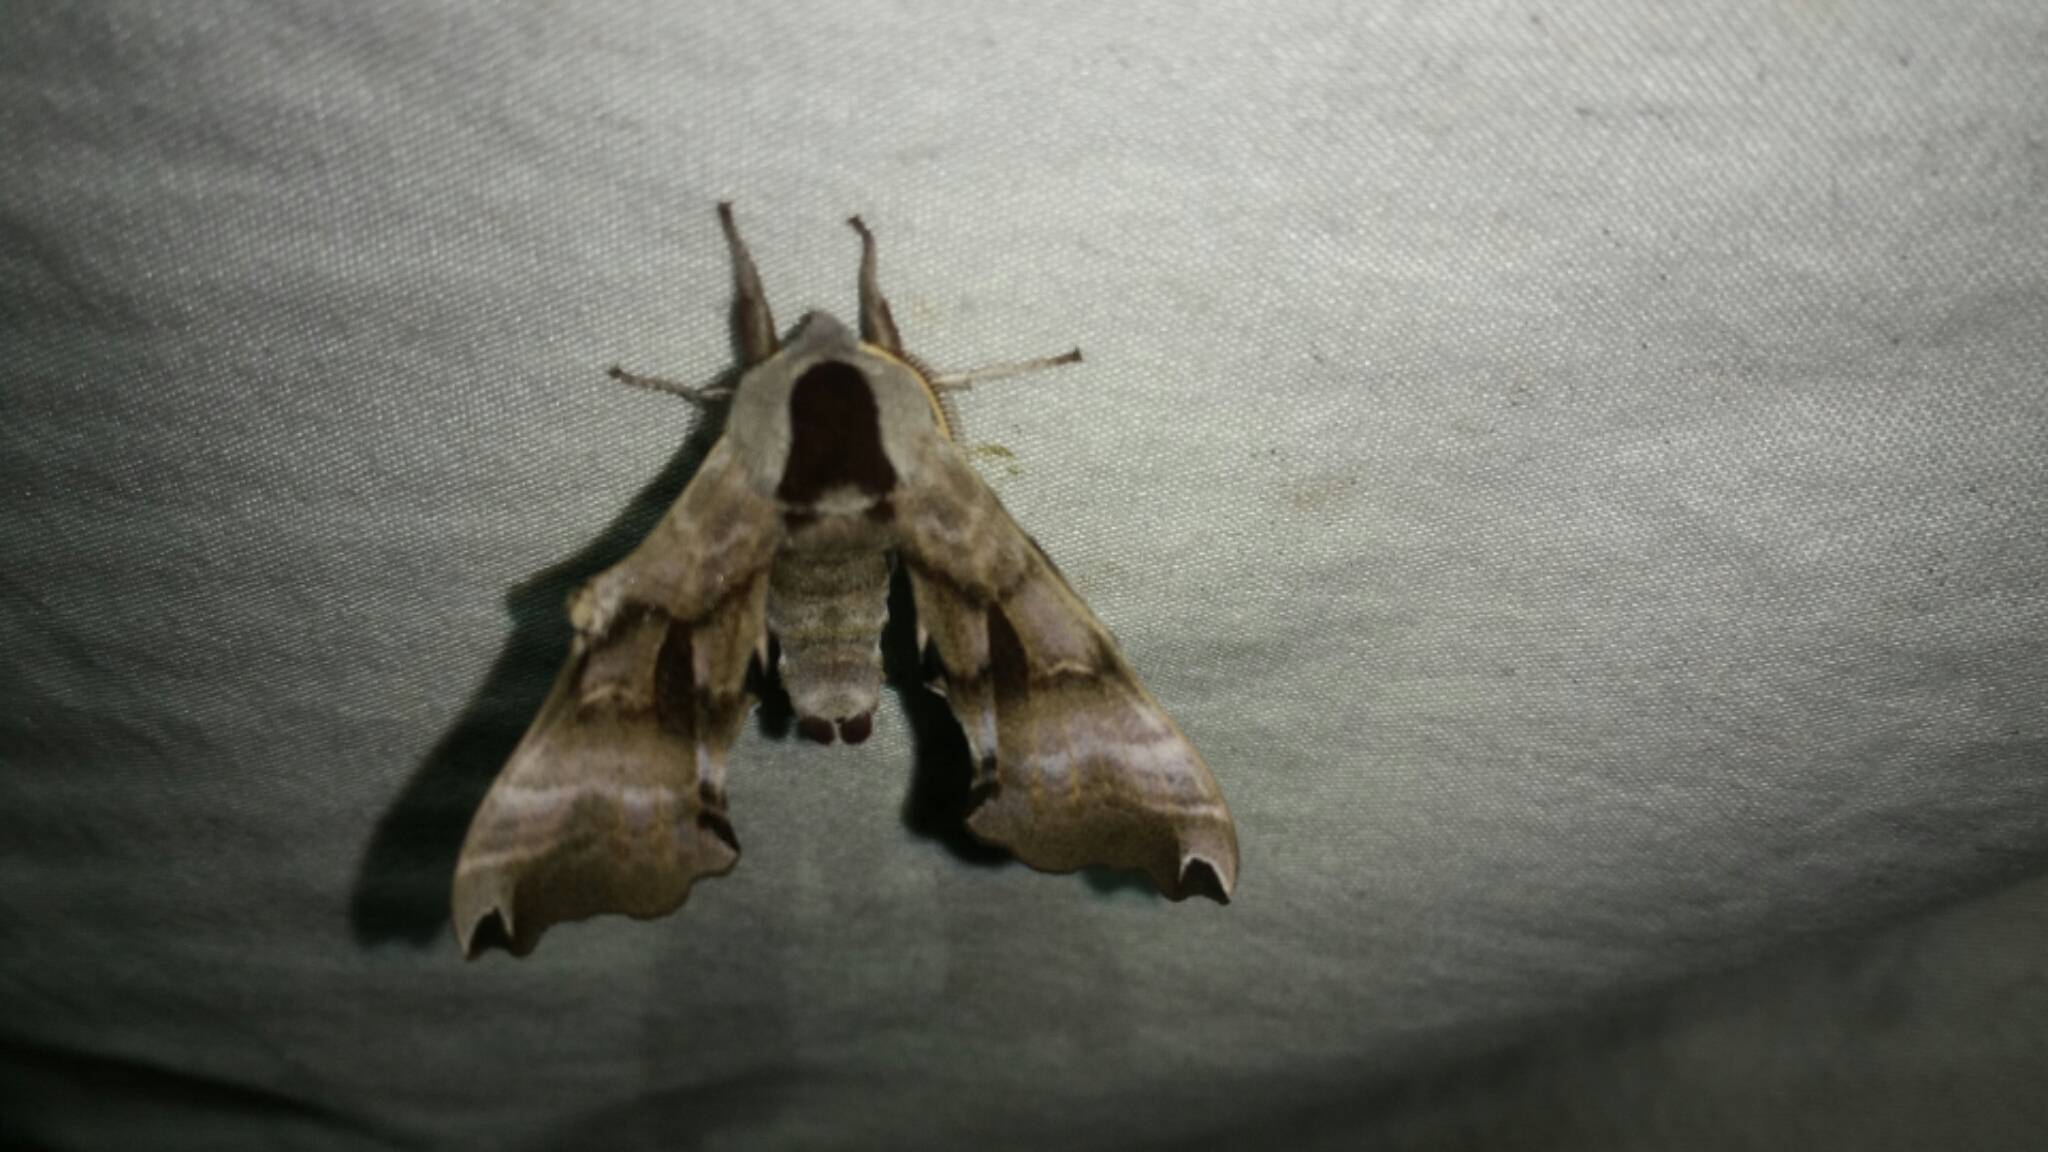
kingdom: Animalia
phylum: Arthropoda
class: Insecta
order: Lepidoptera
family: Sphingidae
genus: Smerinthus
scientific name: Smerinthus jamaicensis
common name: Twin spotted sphinx
